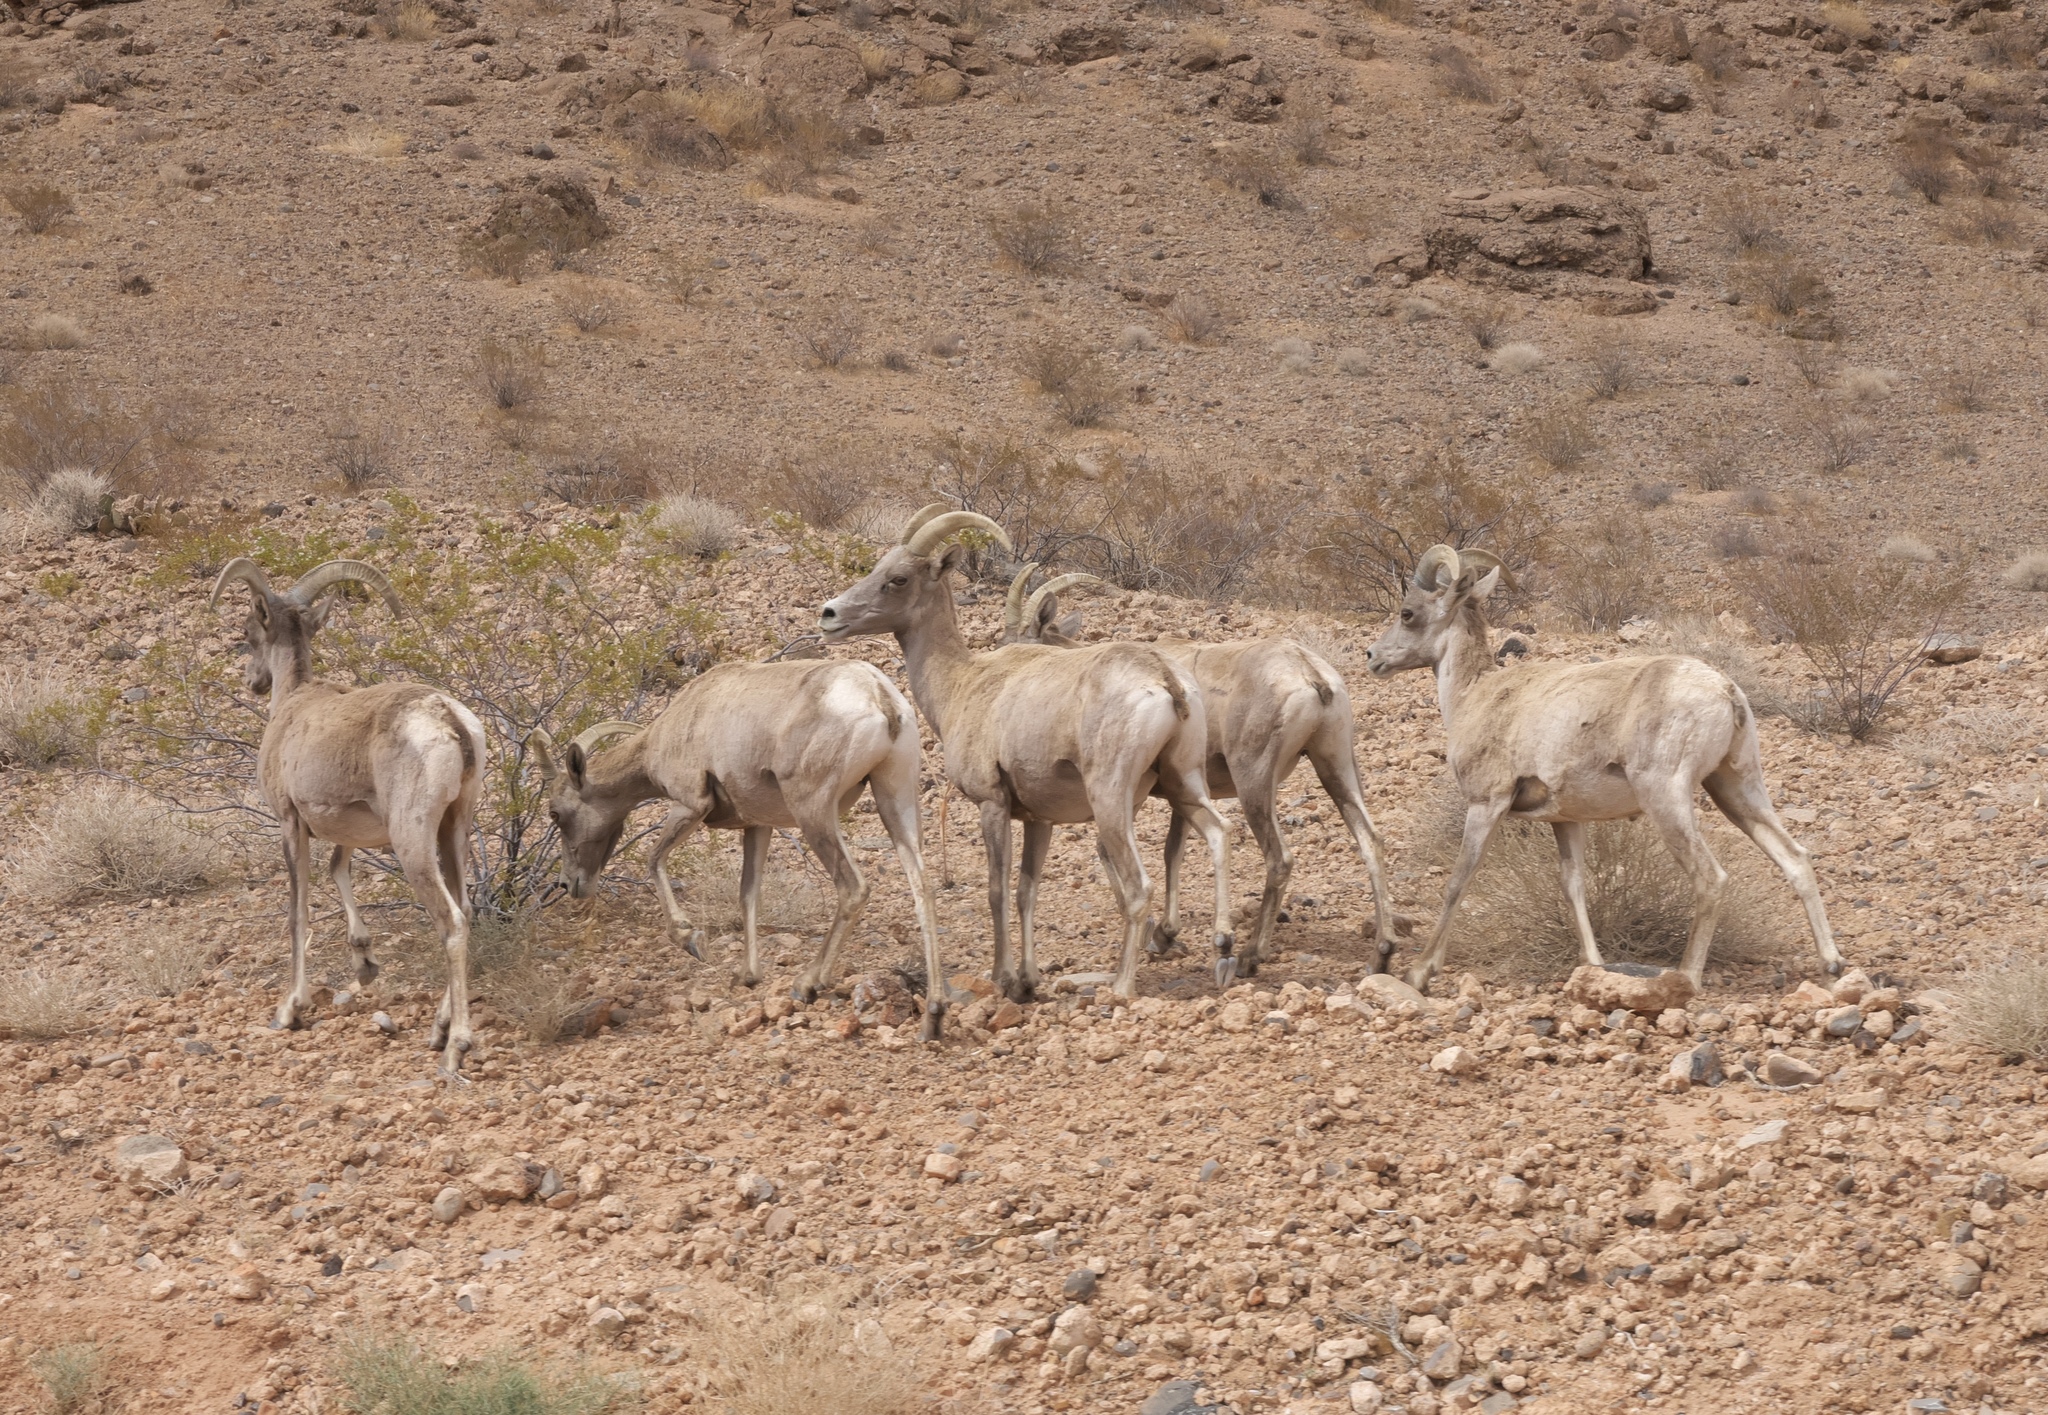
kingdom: Animalia
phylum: Chordata
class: Mammalia
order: Artiodactyla
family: Bovidae
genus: Ovis
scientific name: Ovis canadensis
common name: Bighorn sheep
